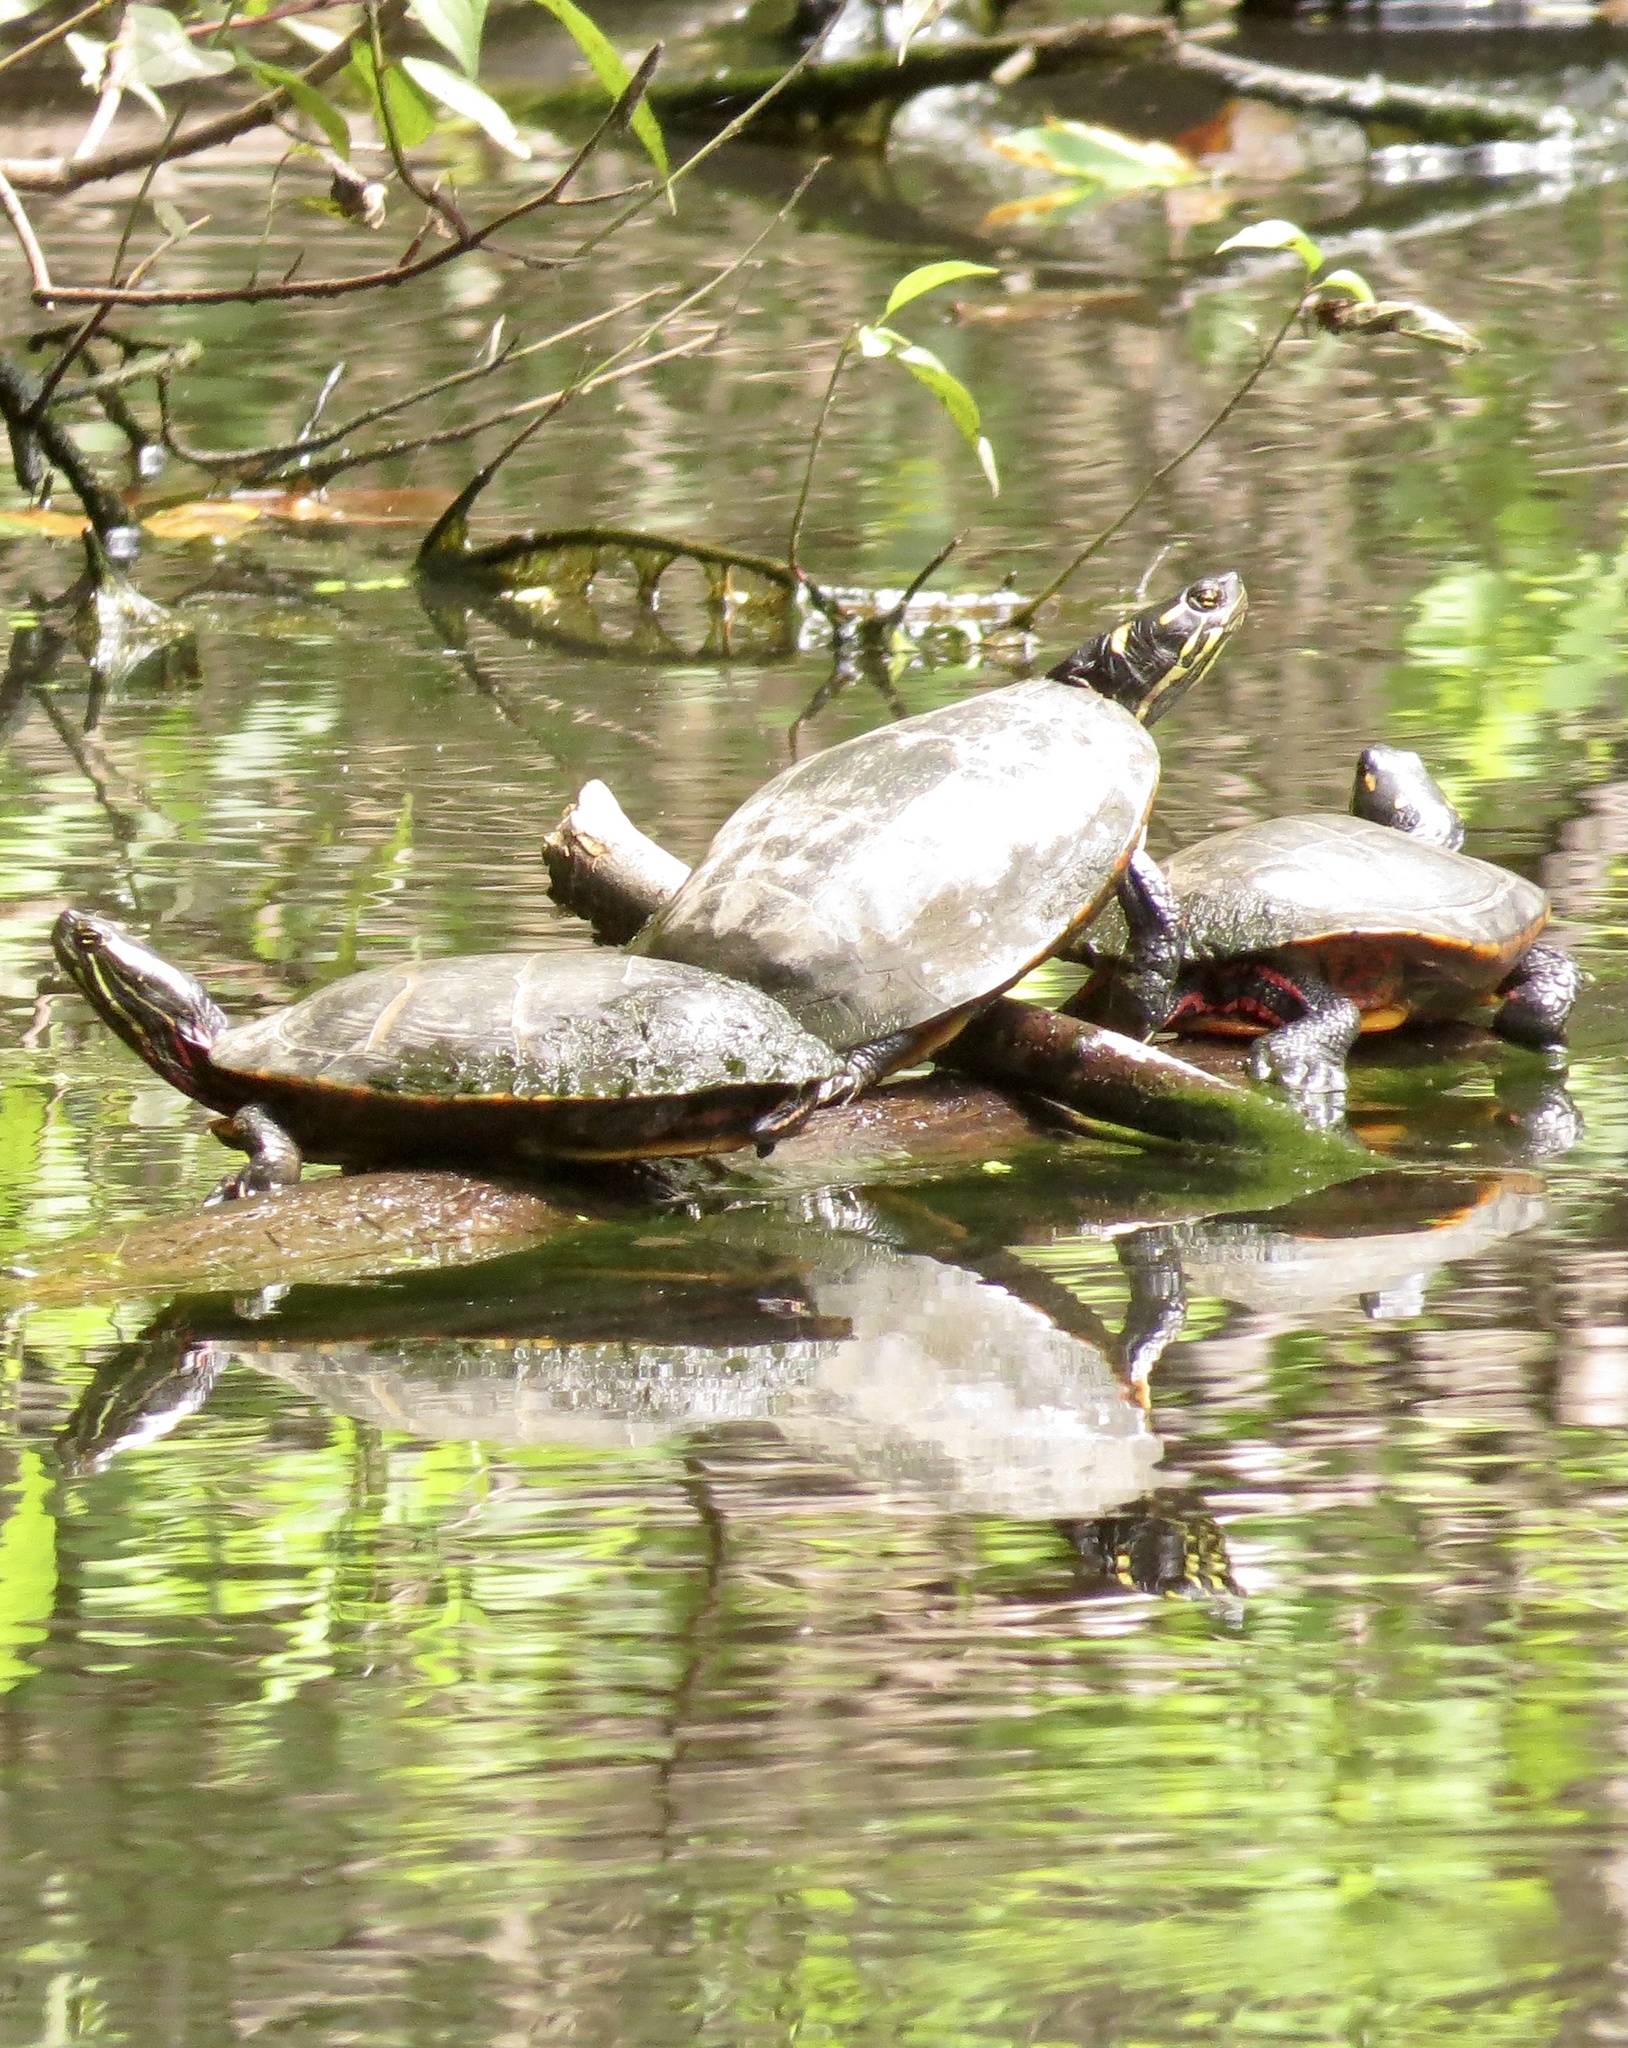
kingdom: Animalia
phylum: Chordata
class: Testudines
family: Emydidae
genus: Chrysemys
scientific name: Chrysemys picta
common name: Painted turtle
